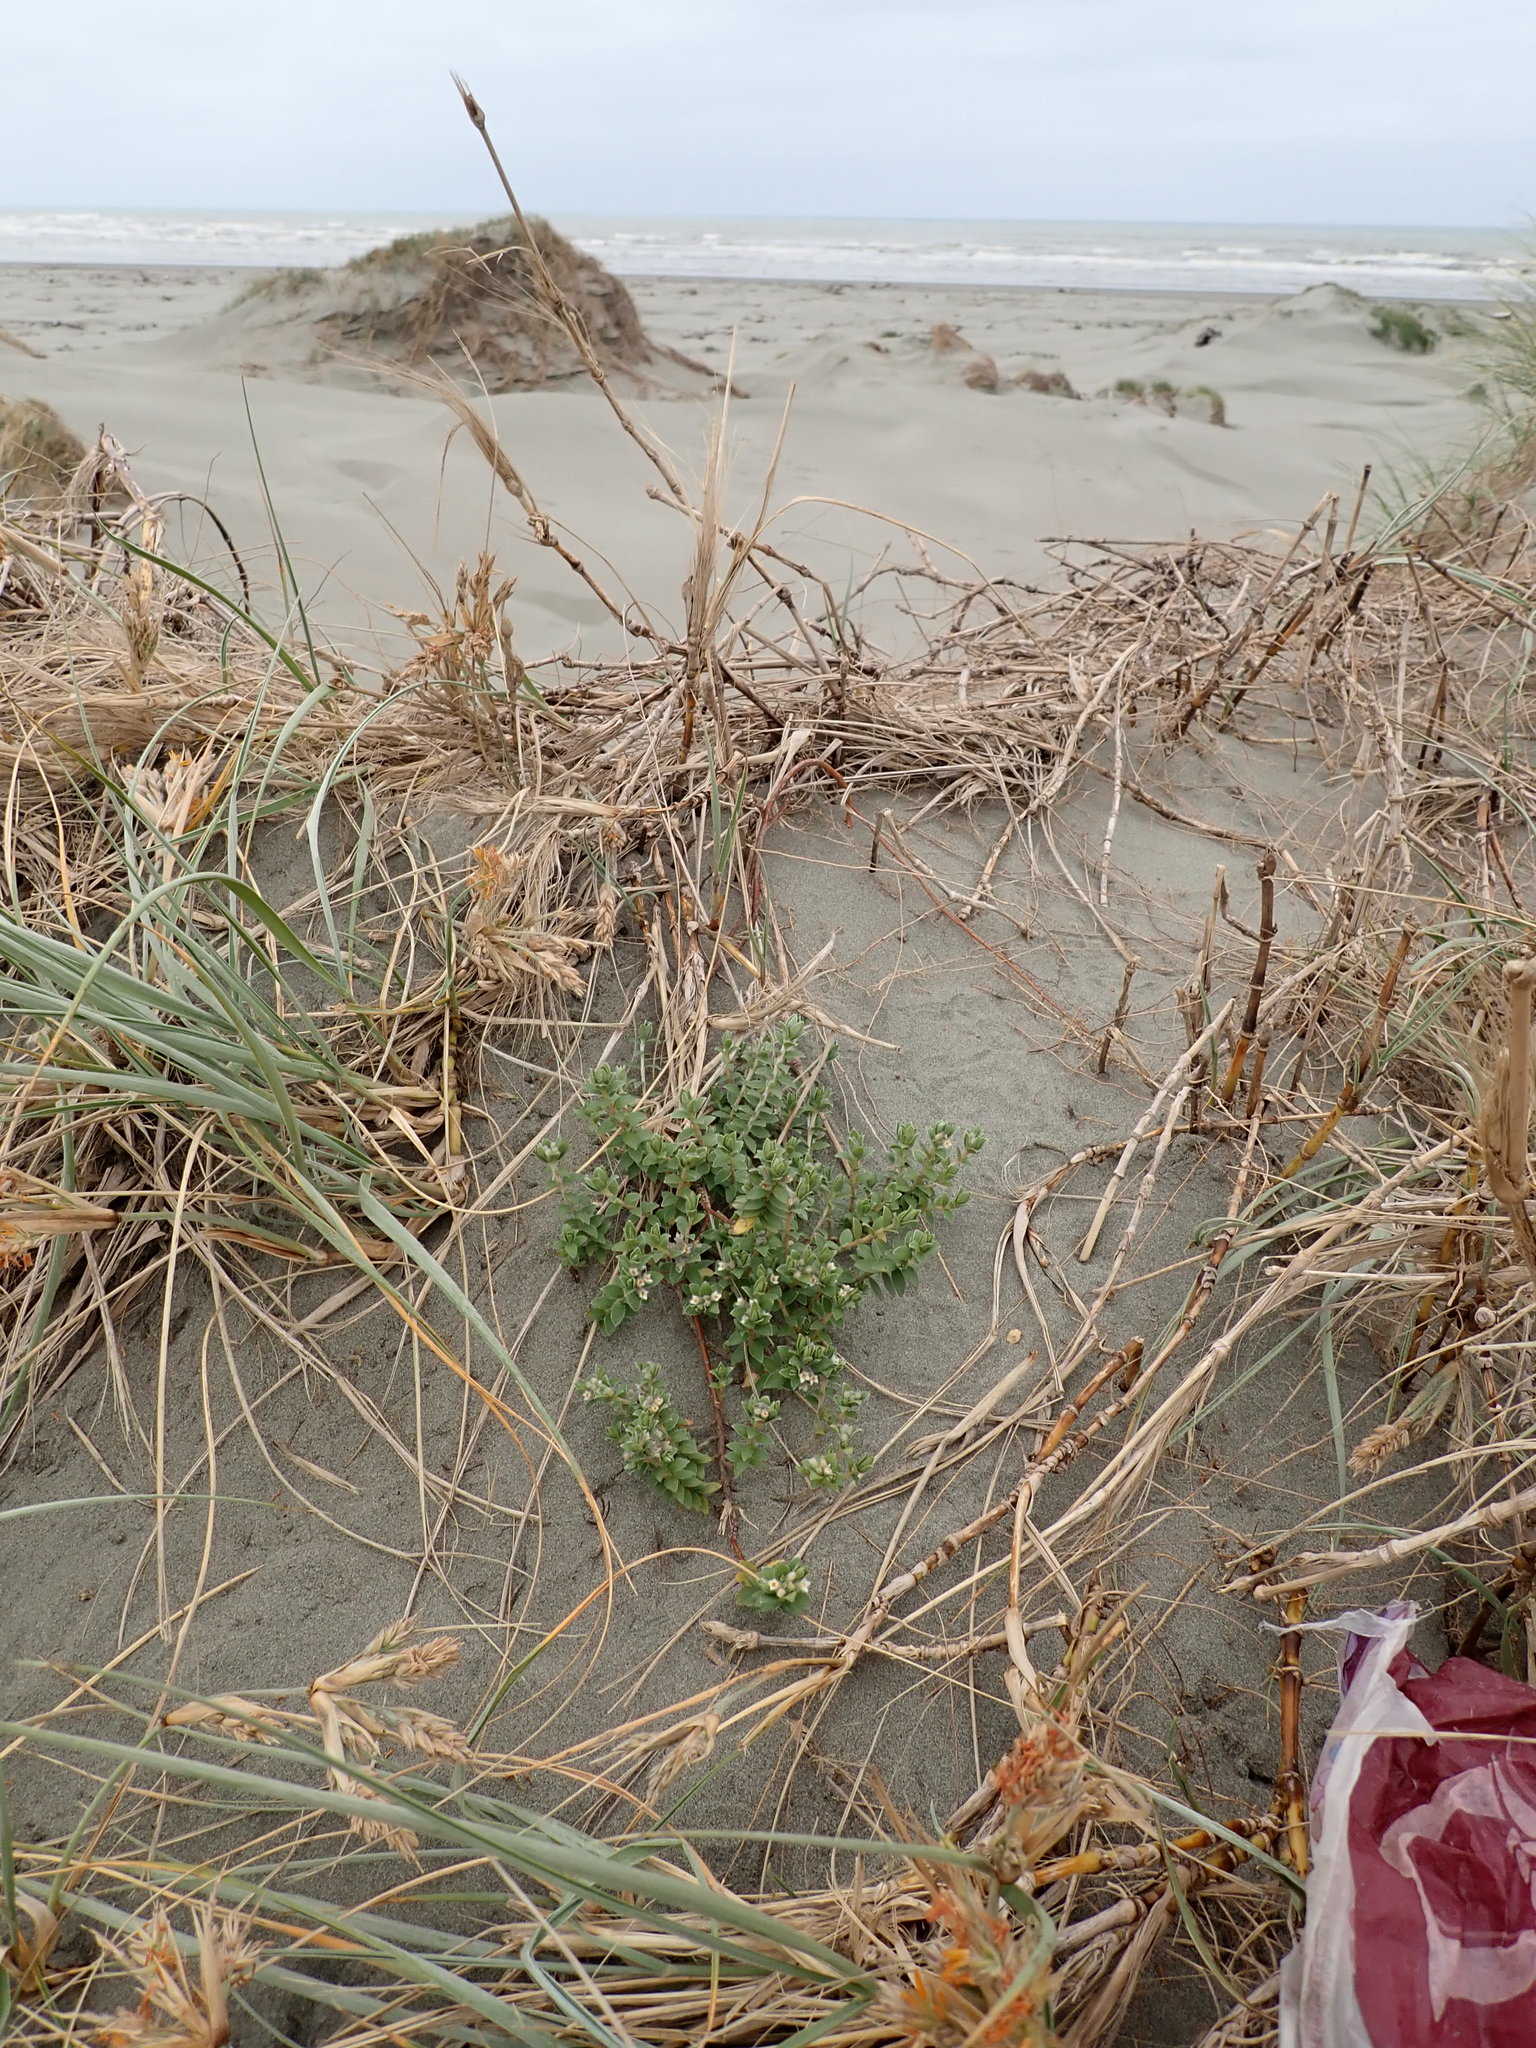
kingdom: Plantae
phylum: Tracheophyta
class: Magnoliopsida
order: Malvales
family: Thymelaeaceae
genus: Pimelea
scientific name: Pimelea villosa
